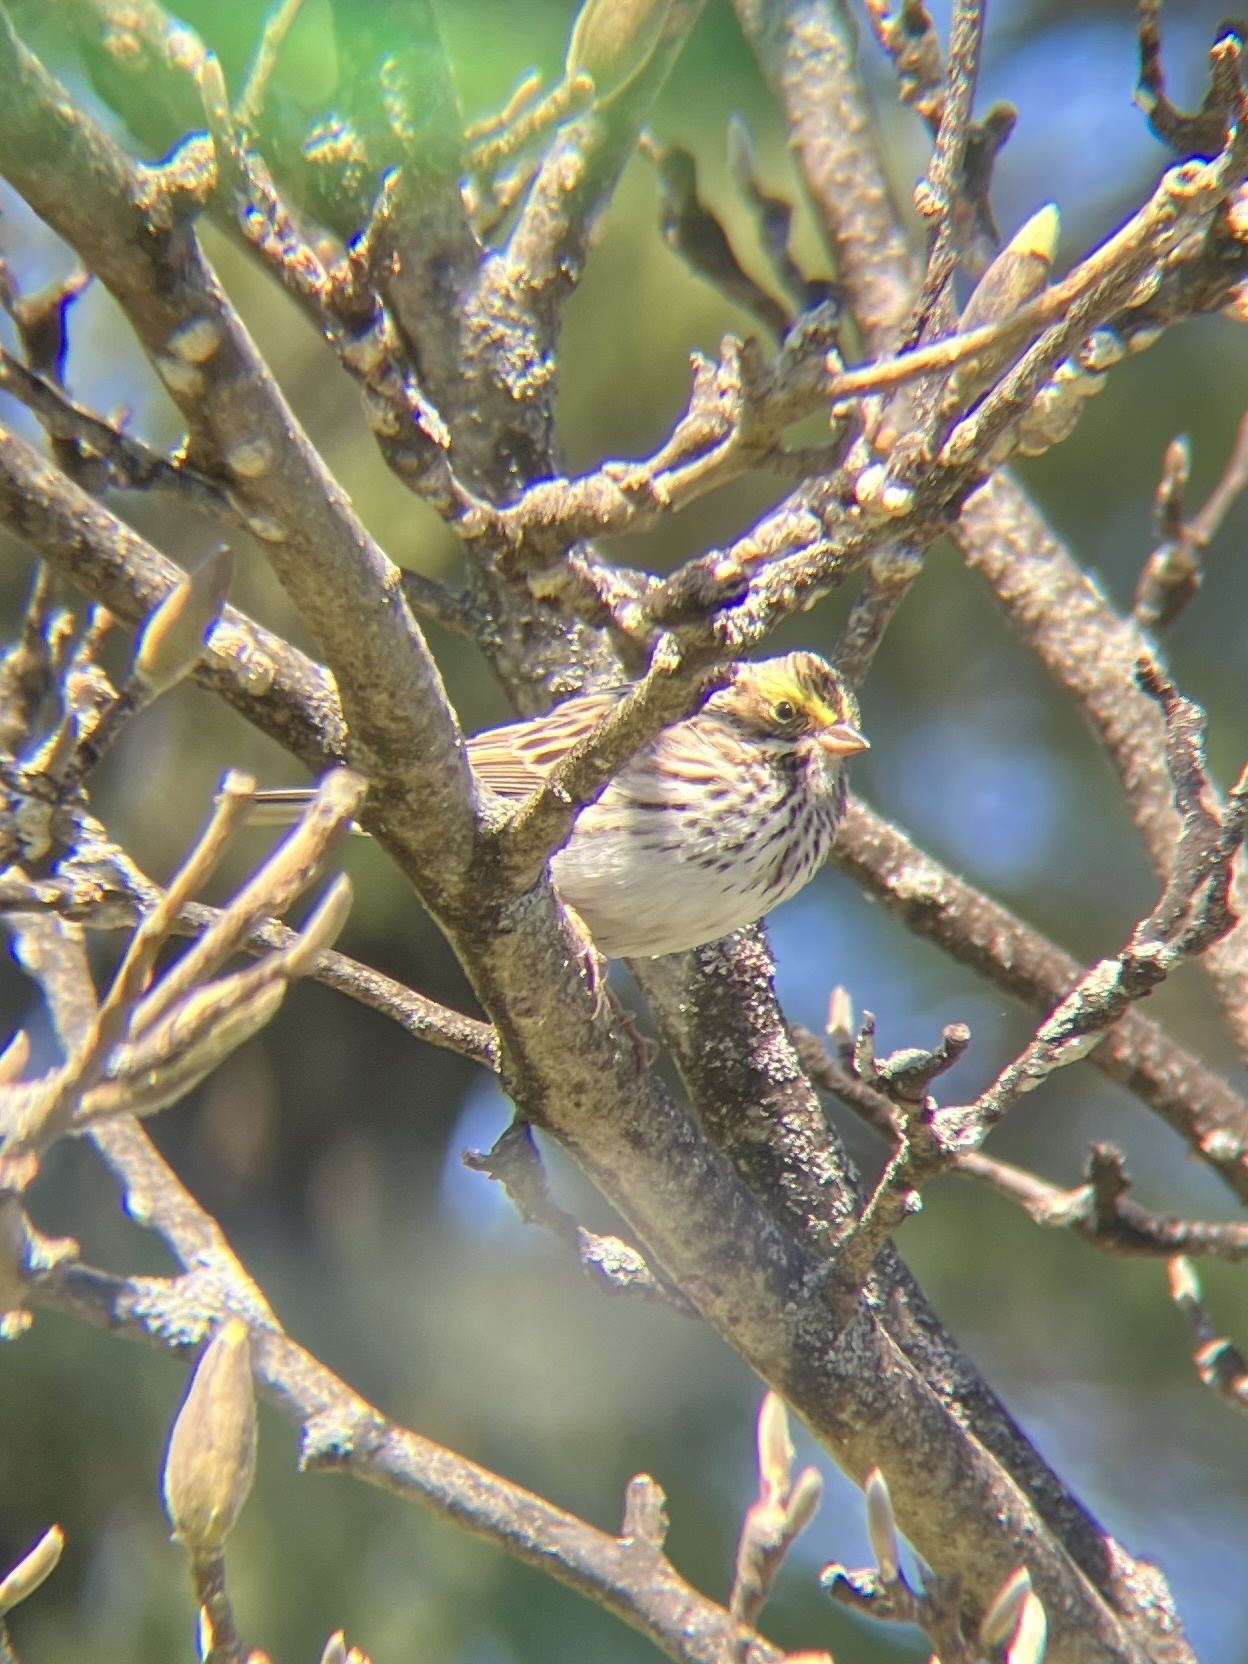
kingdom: Animalia
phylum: Chordata
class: Aves
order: Passeriformes
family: Passerellidae
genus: Passerculus
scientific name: Passerculus sandwichensis
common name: Savannah sparrow
